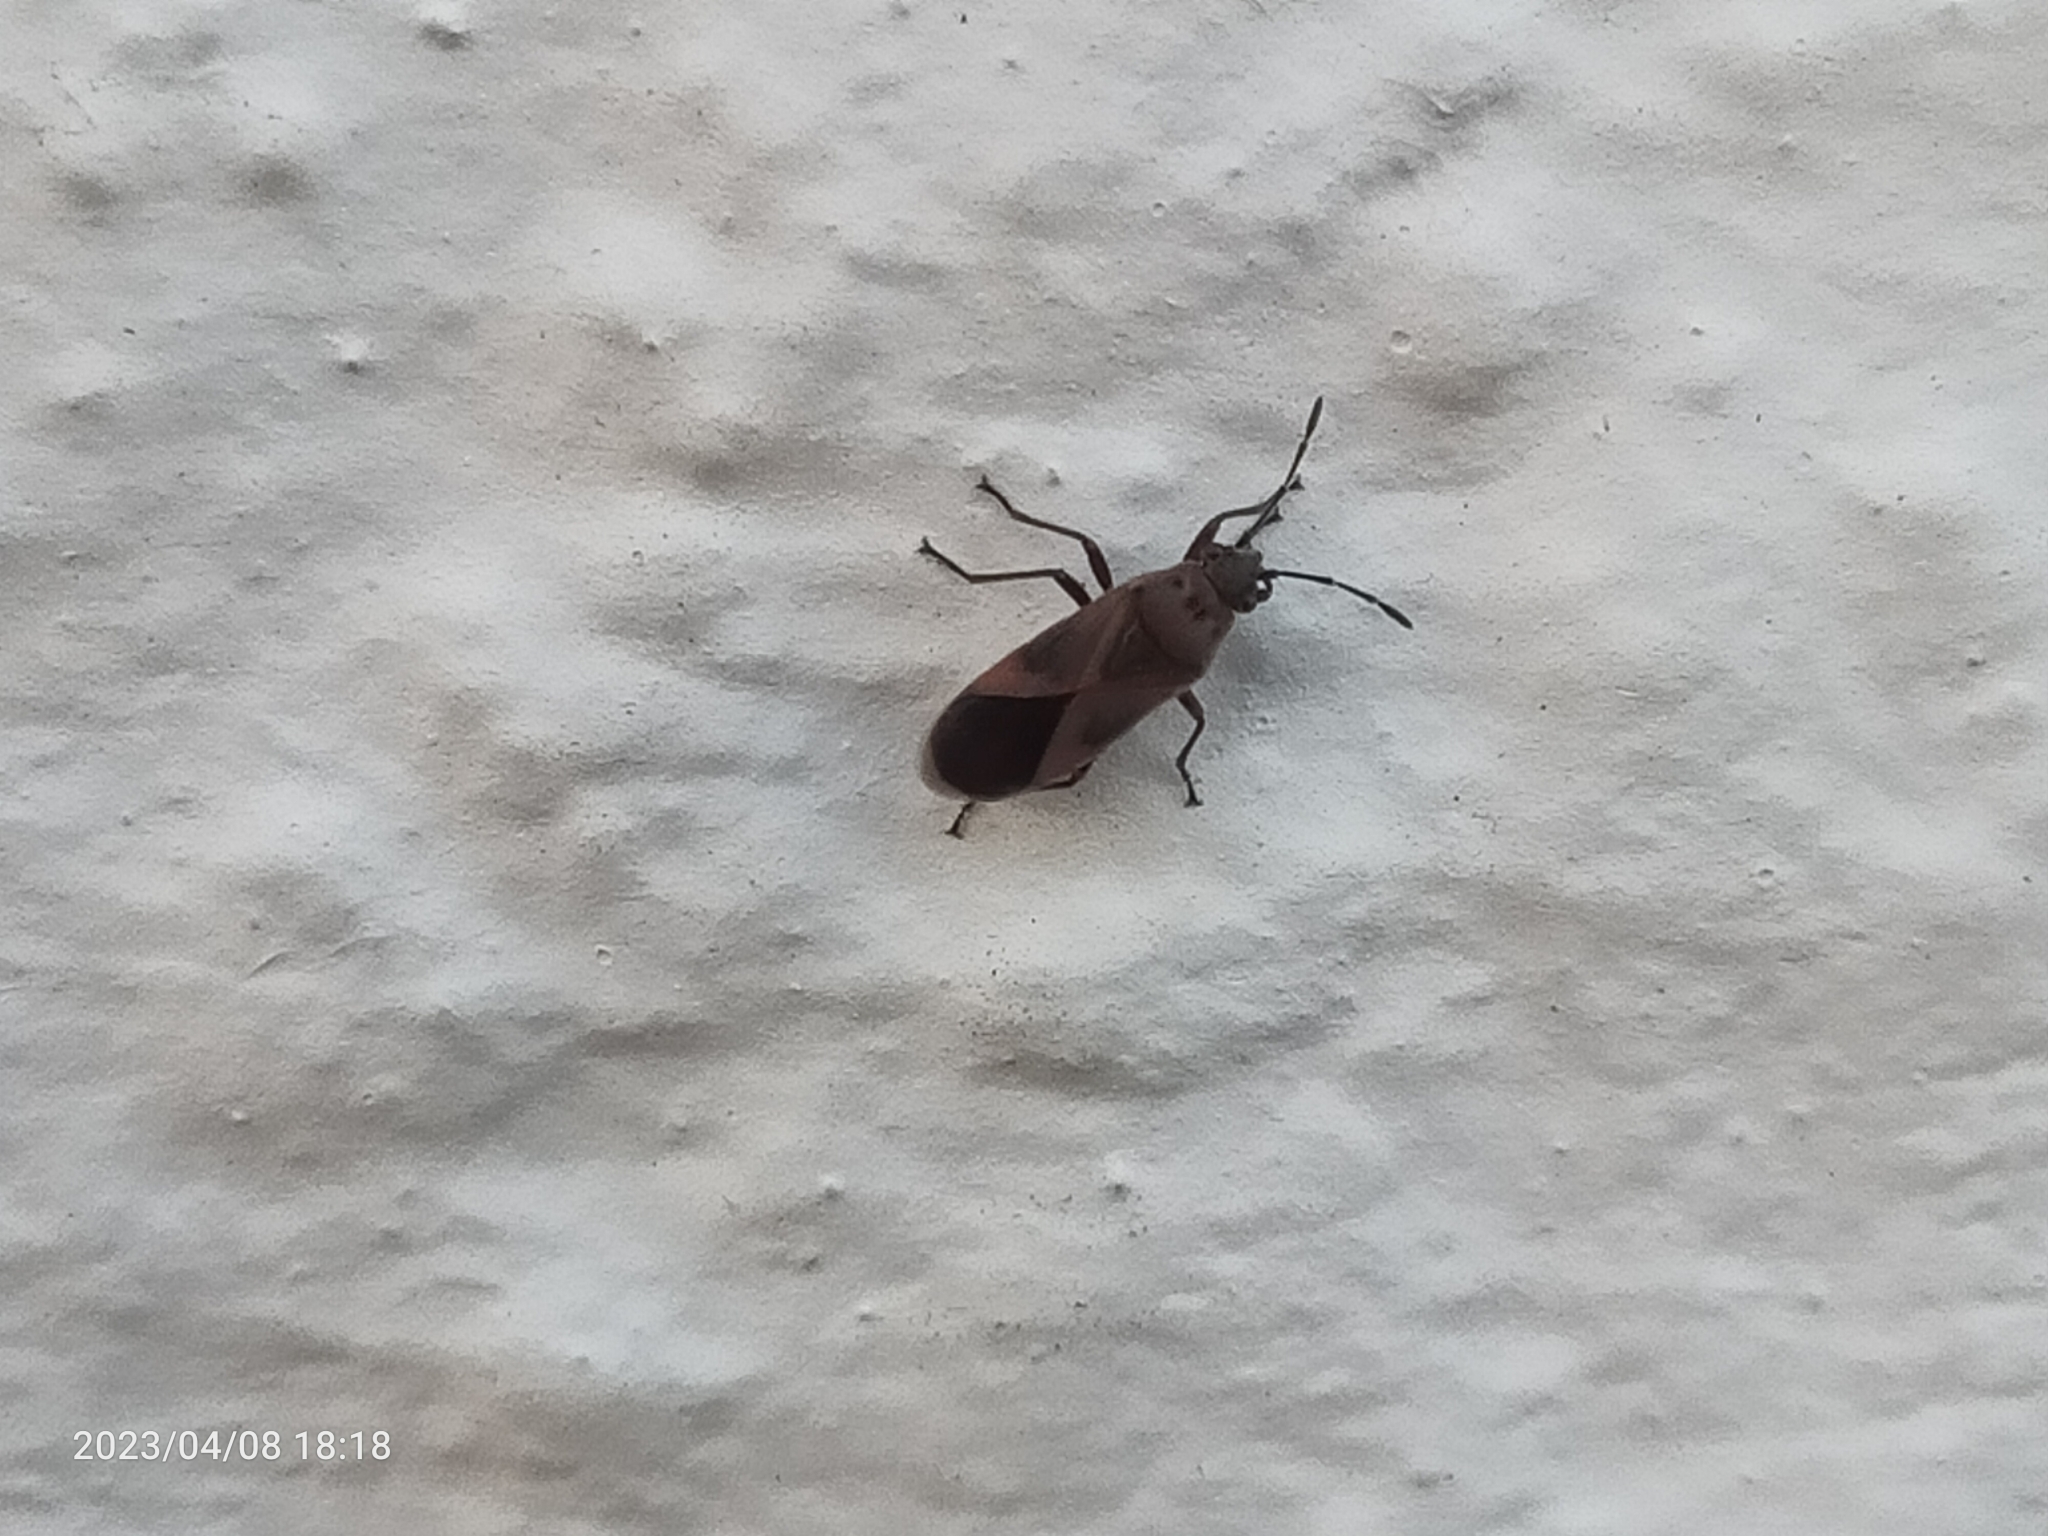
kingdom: Animalia
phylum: Arthropoda
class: Insecta
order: Hemiptera
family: Lygaeidae
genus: Arocatus
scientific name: Arocatus roeselii
